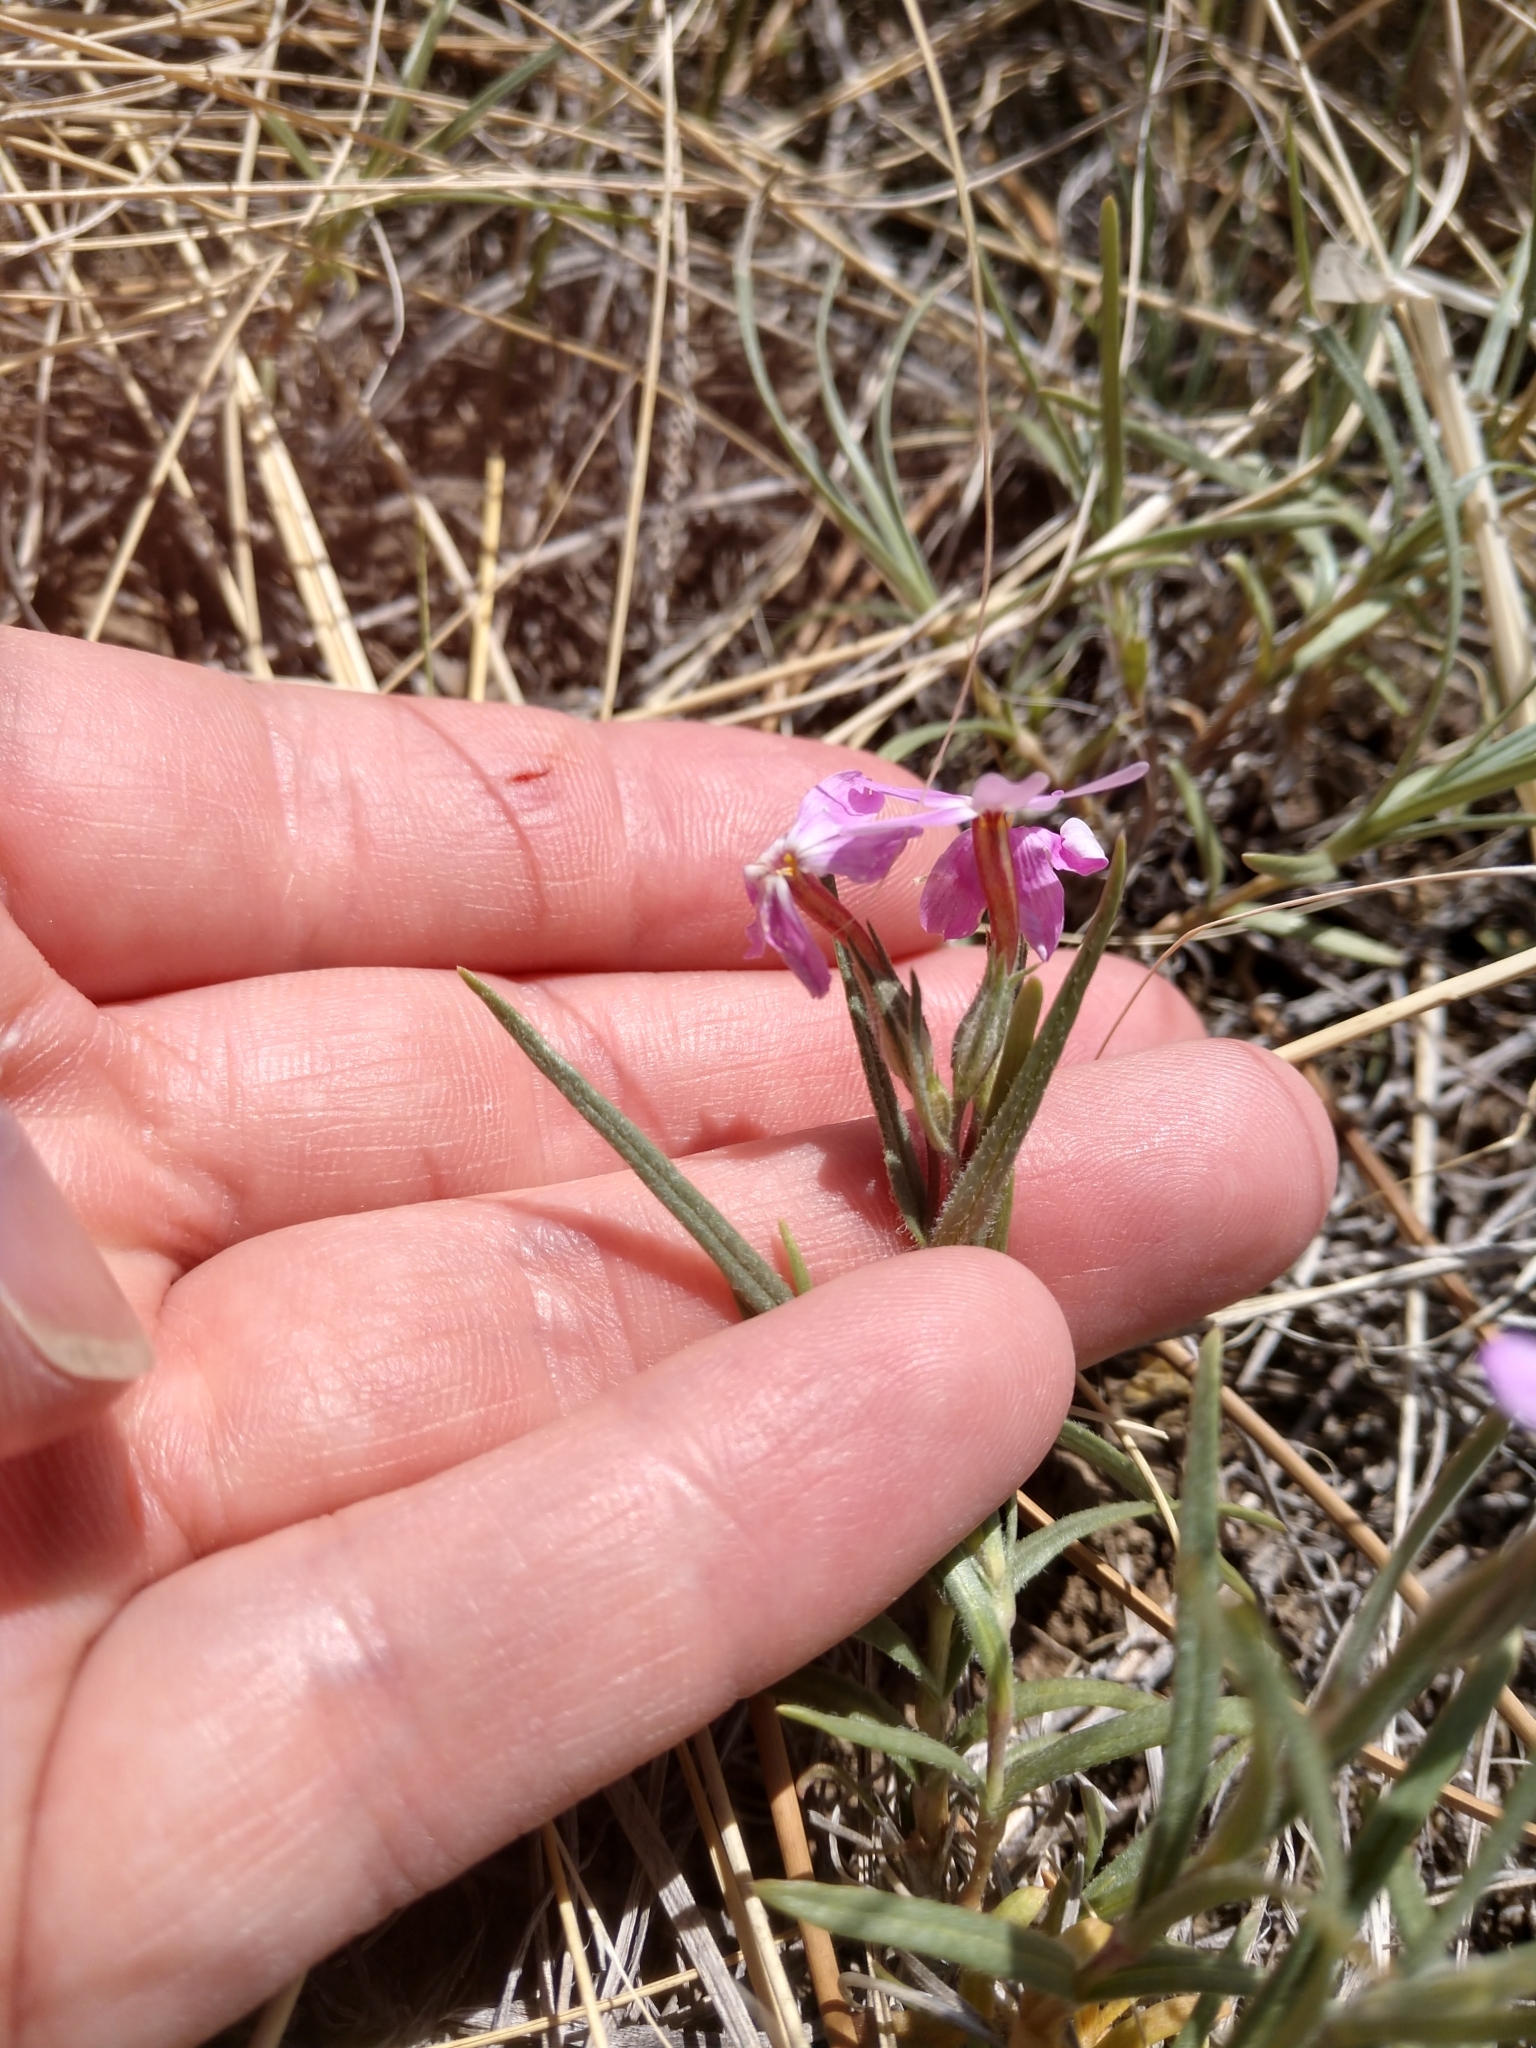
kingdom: Plantae
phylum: Tracheophyta
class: Magnoliopsida
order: Ericales
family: Polemoniaceae
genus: Phlox
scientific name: Phlox longifolia
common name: Longleaf phlox
